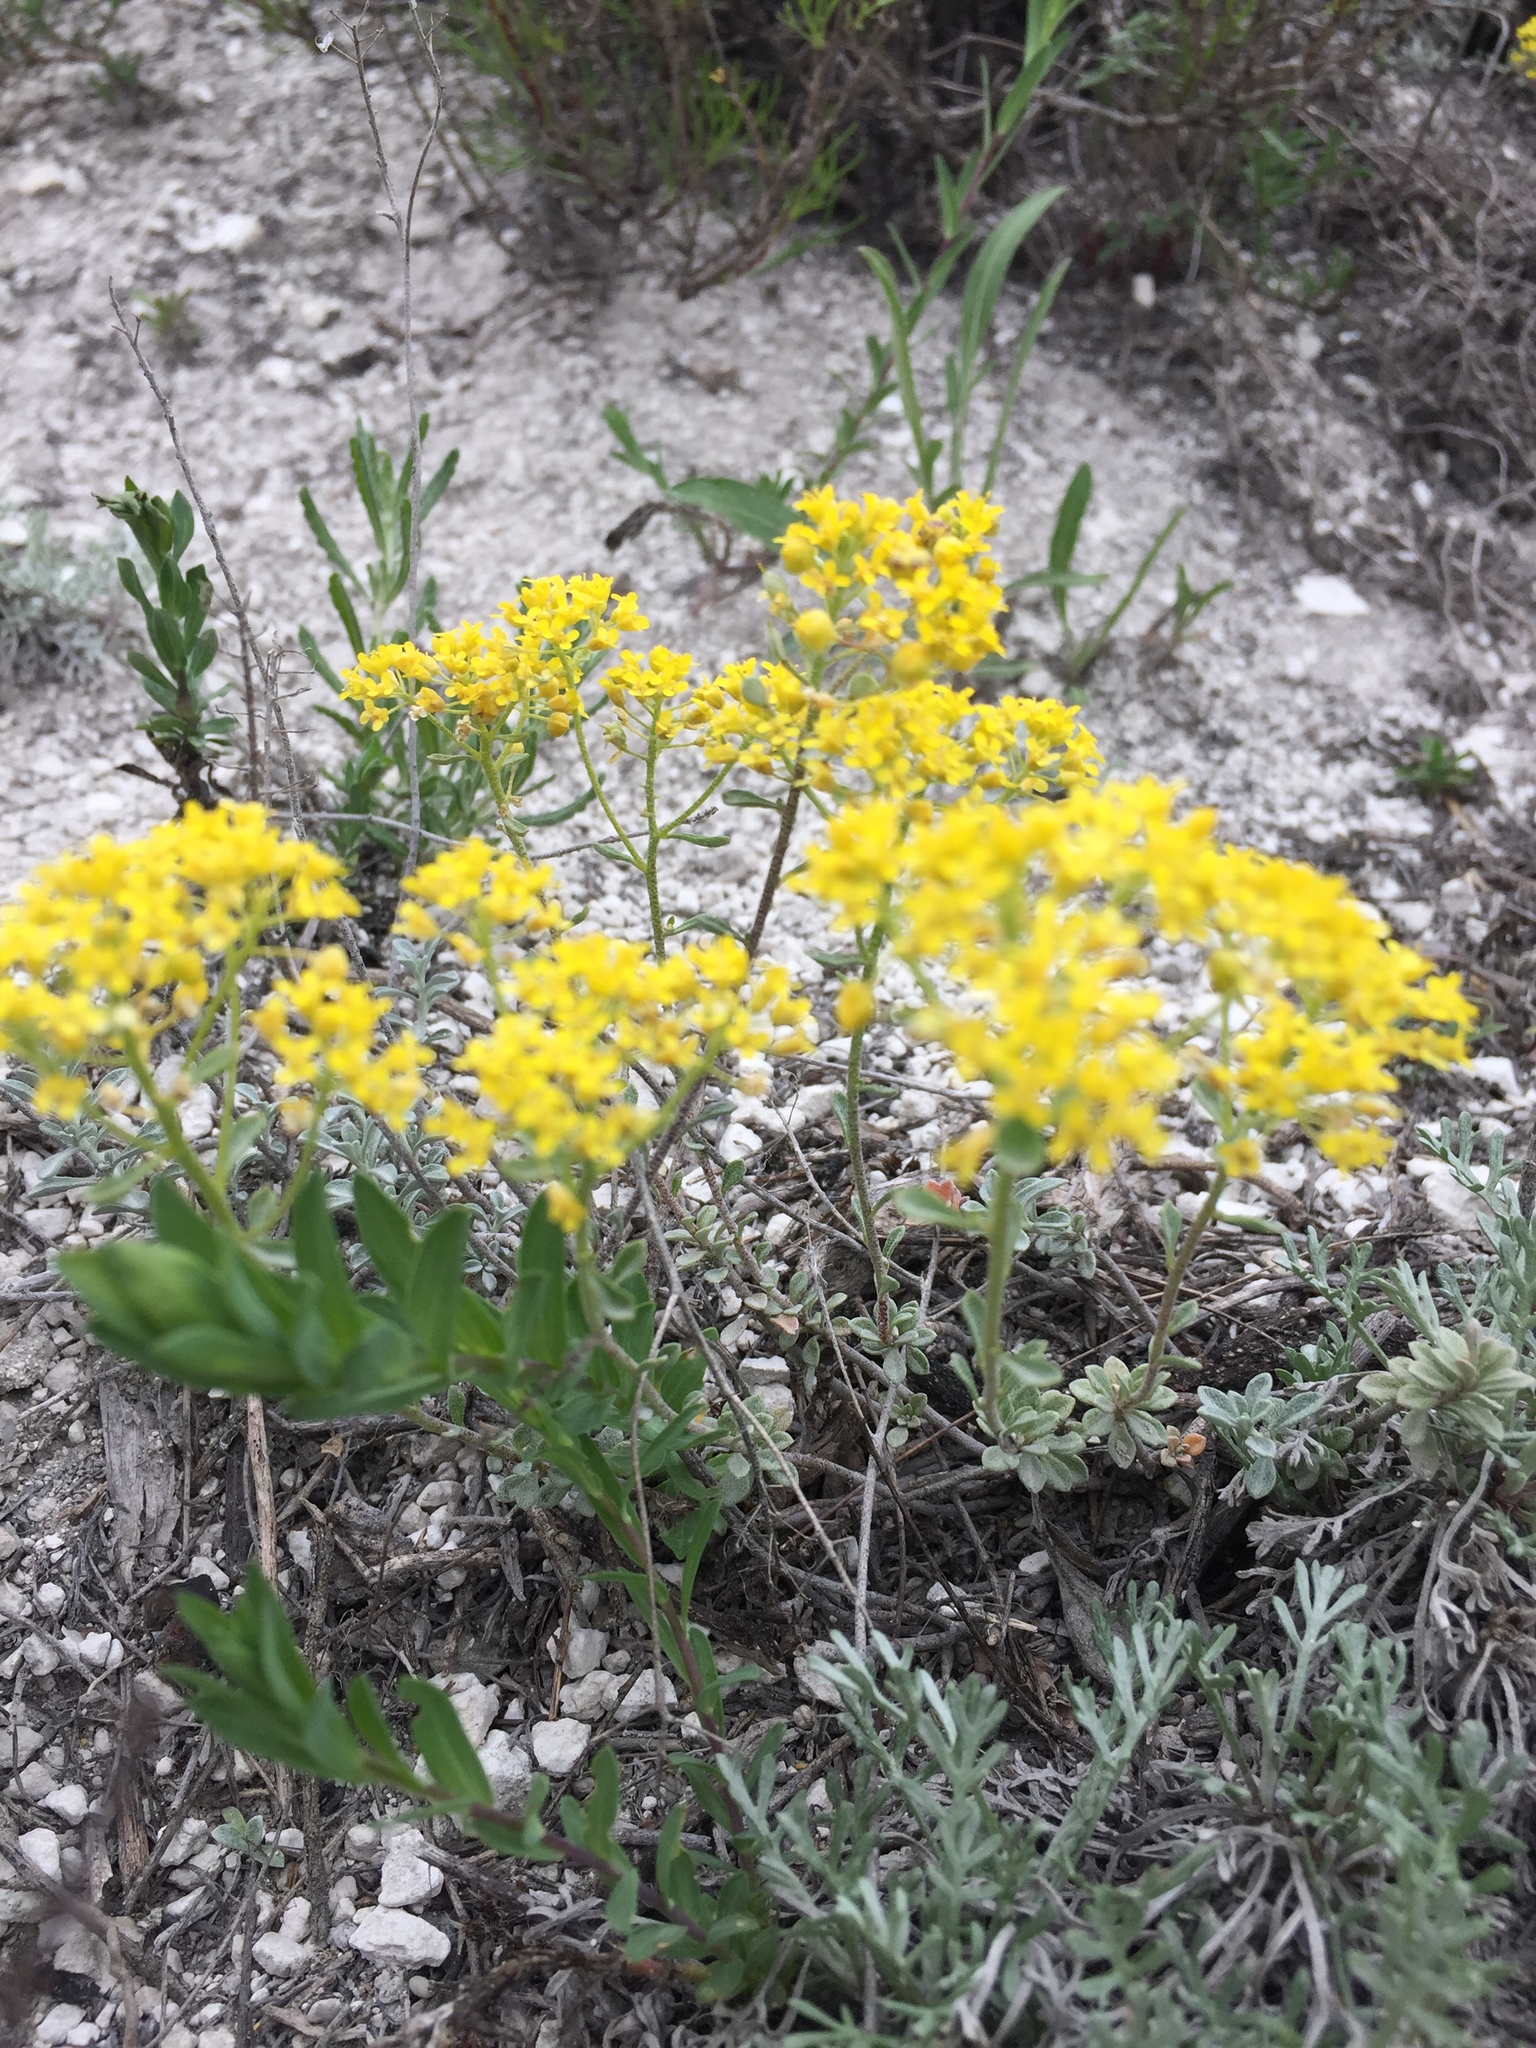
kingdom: Plantae
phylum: Tracheophyta
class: Magnoliopsida
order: Brassicales
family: Brassicaceae
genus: Odontarrhena
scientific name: Odontarrhena tortuosa
